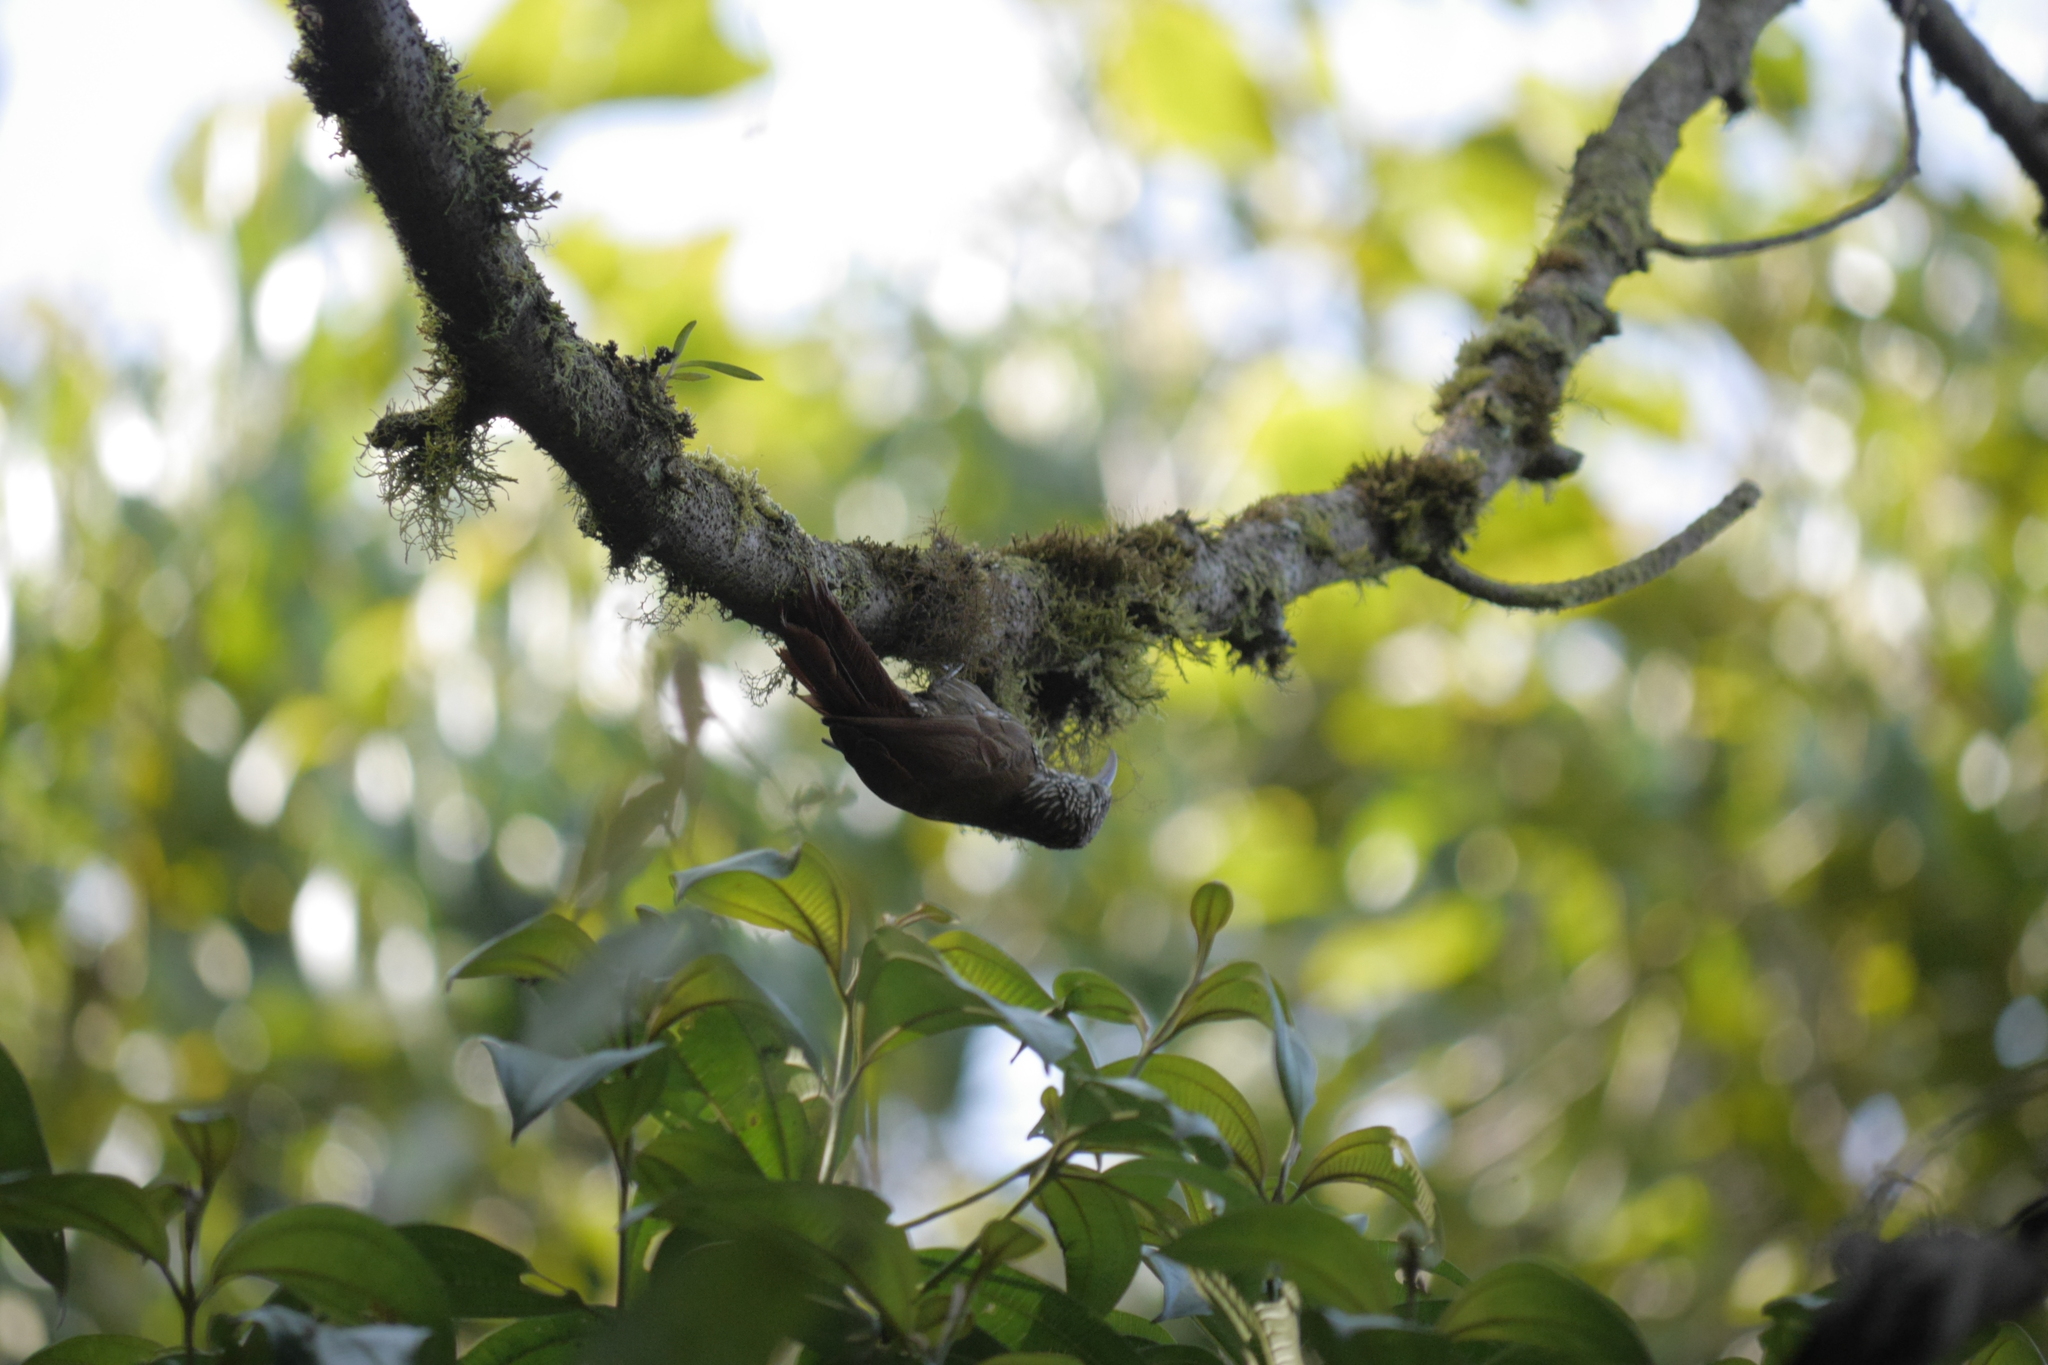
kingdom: Animalia
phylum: Chordata
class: Aves
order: Passeriformes
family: Furnariidae
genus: Lepidocolaptes
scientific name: Lepidocolaptes souleyetii
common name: Streak-headed woodcreeper
